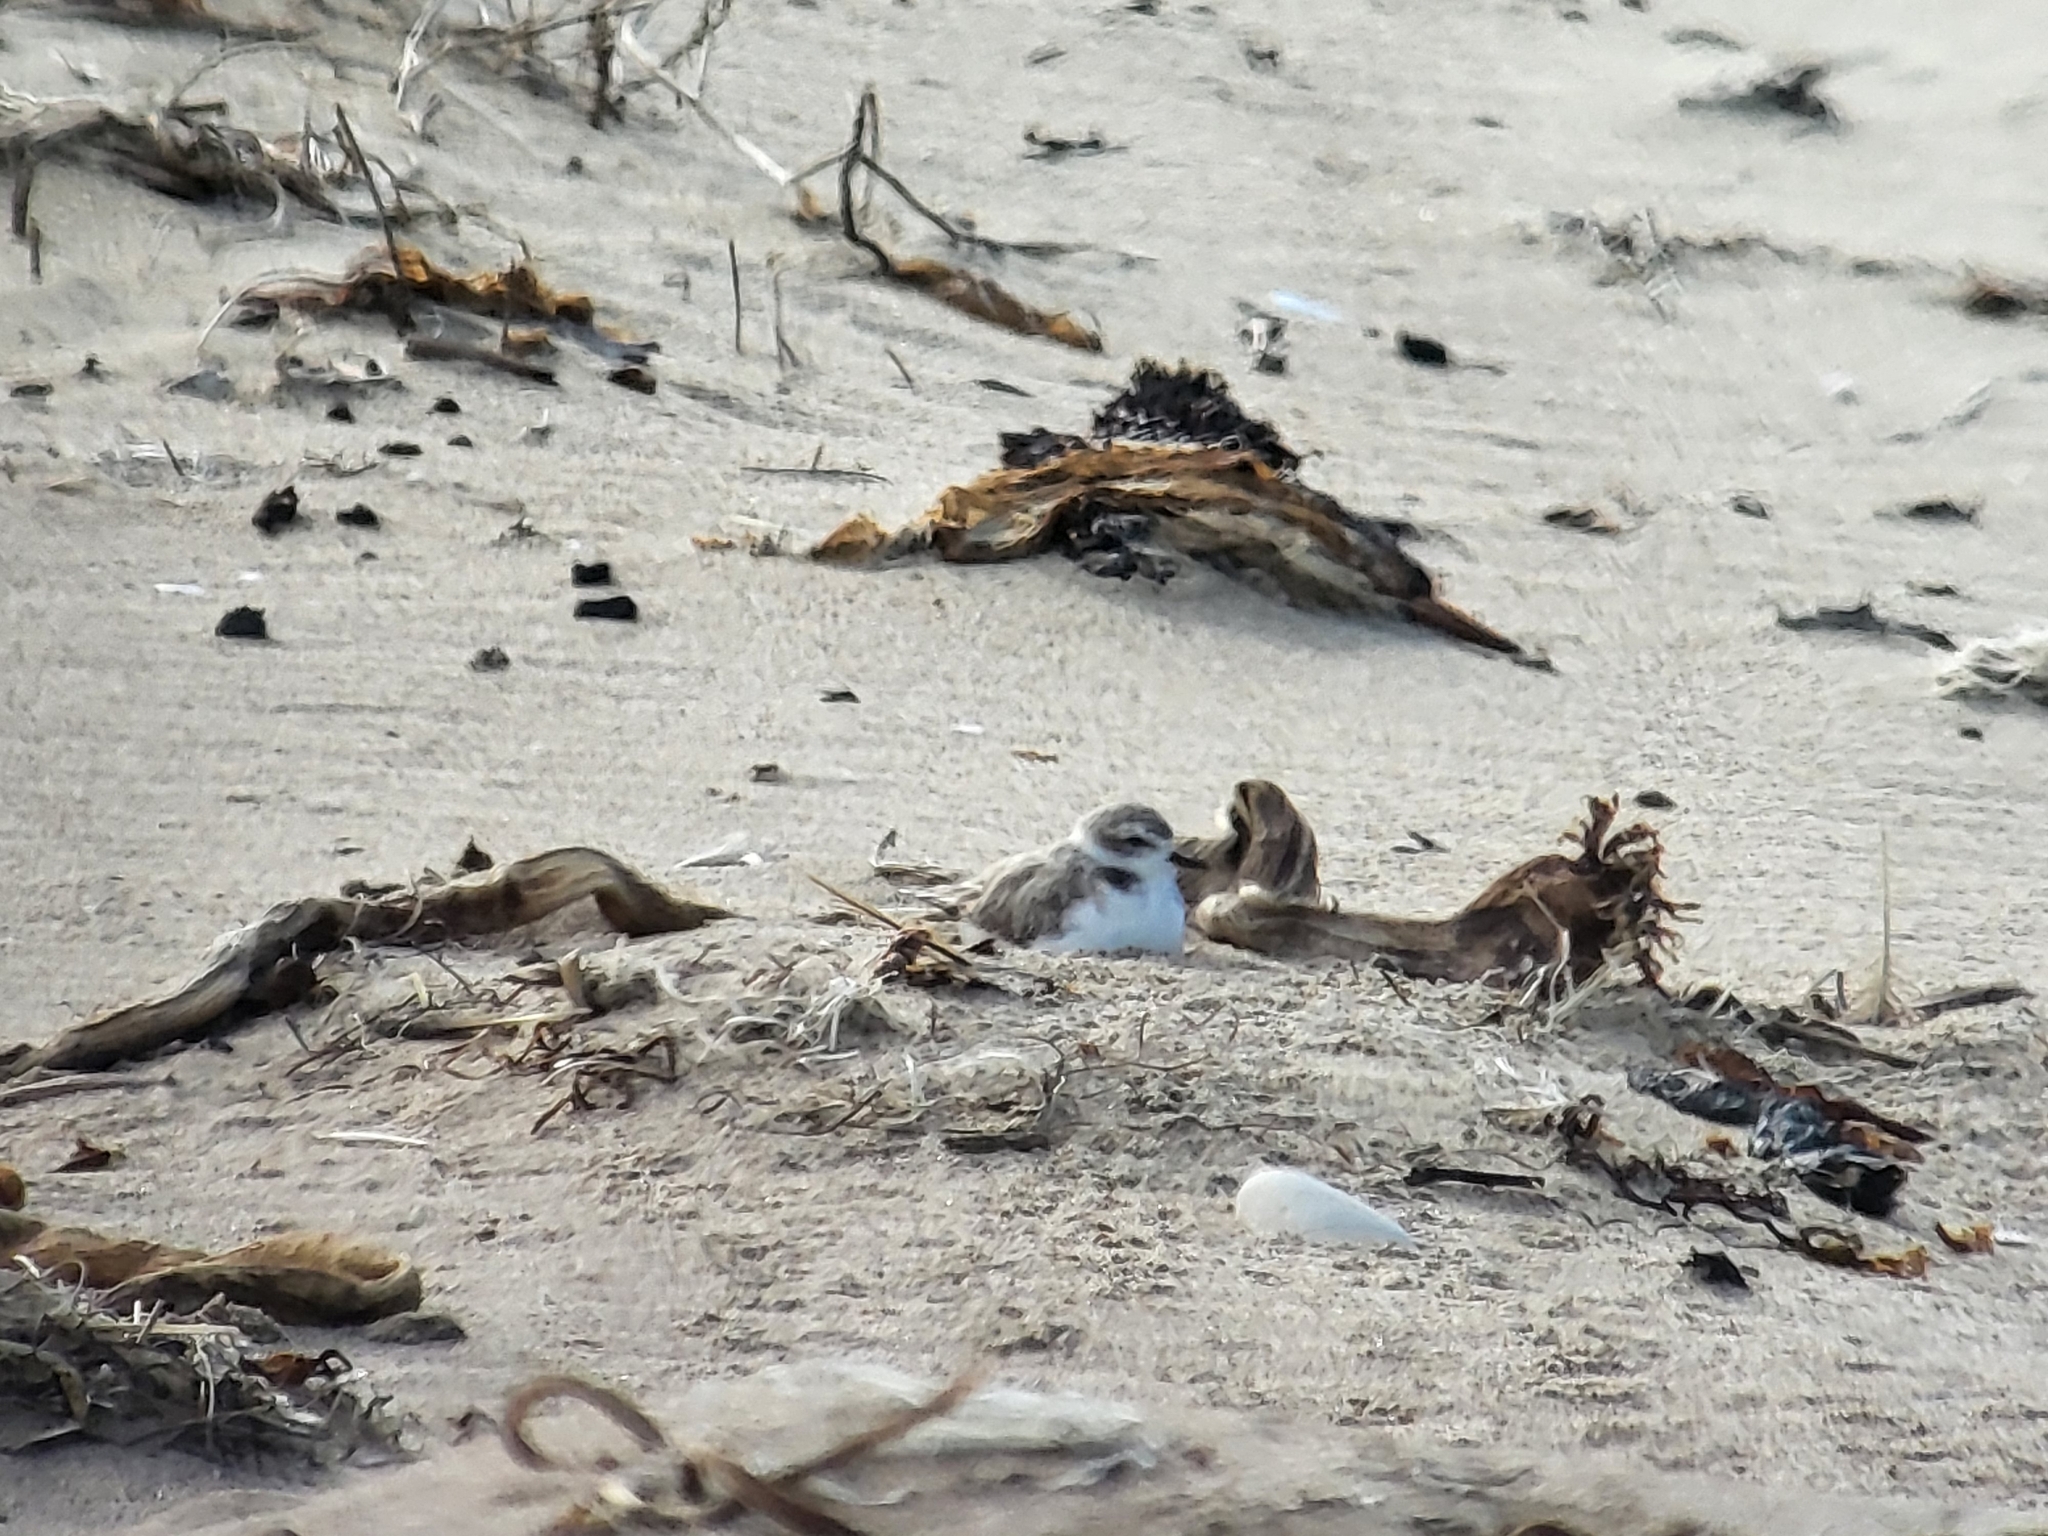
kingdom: Animalia
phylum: Chordata
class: Aves
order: Charadriiformes
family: Charadriidae
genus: Anarhynchus
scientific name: Anarhynchus
